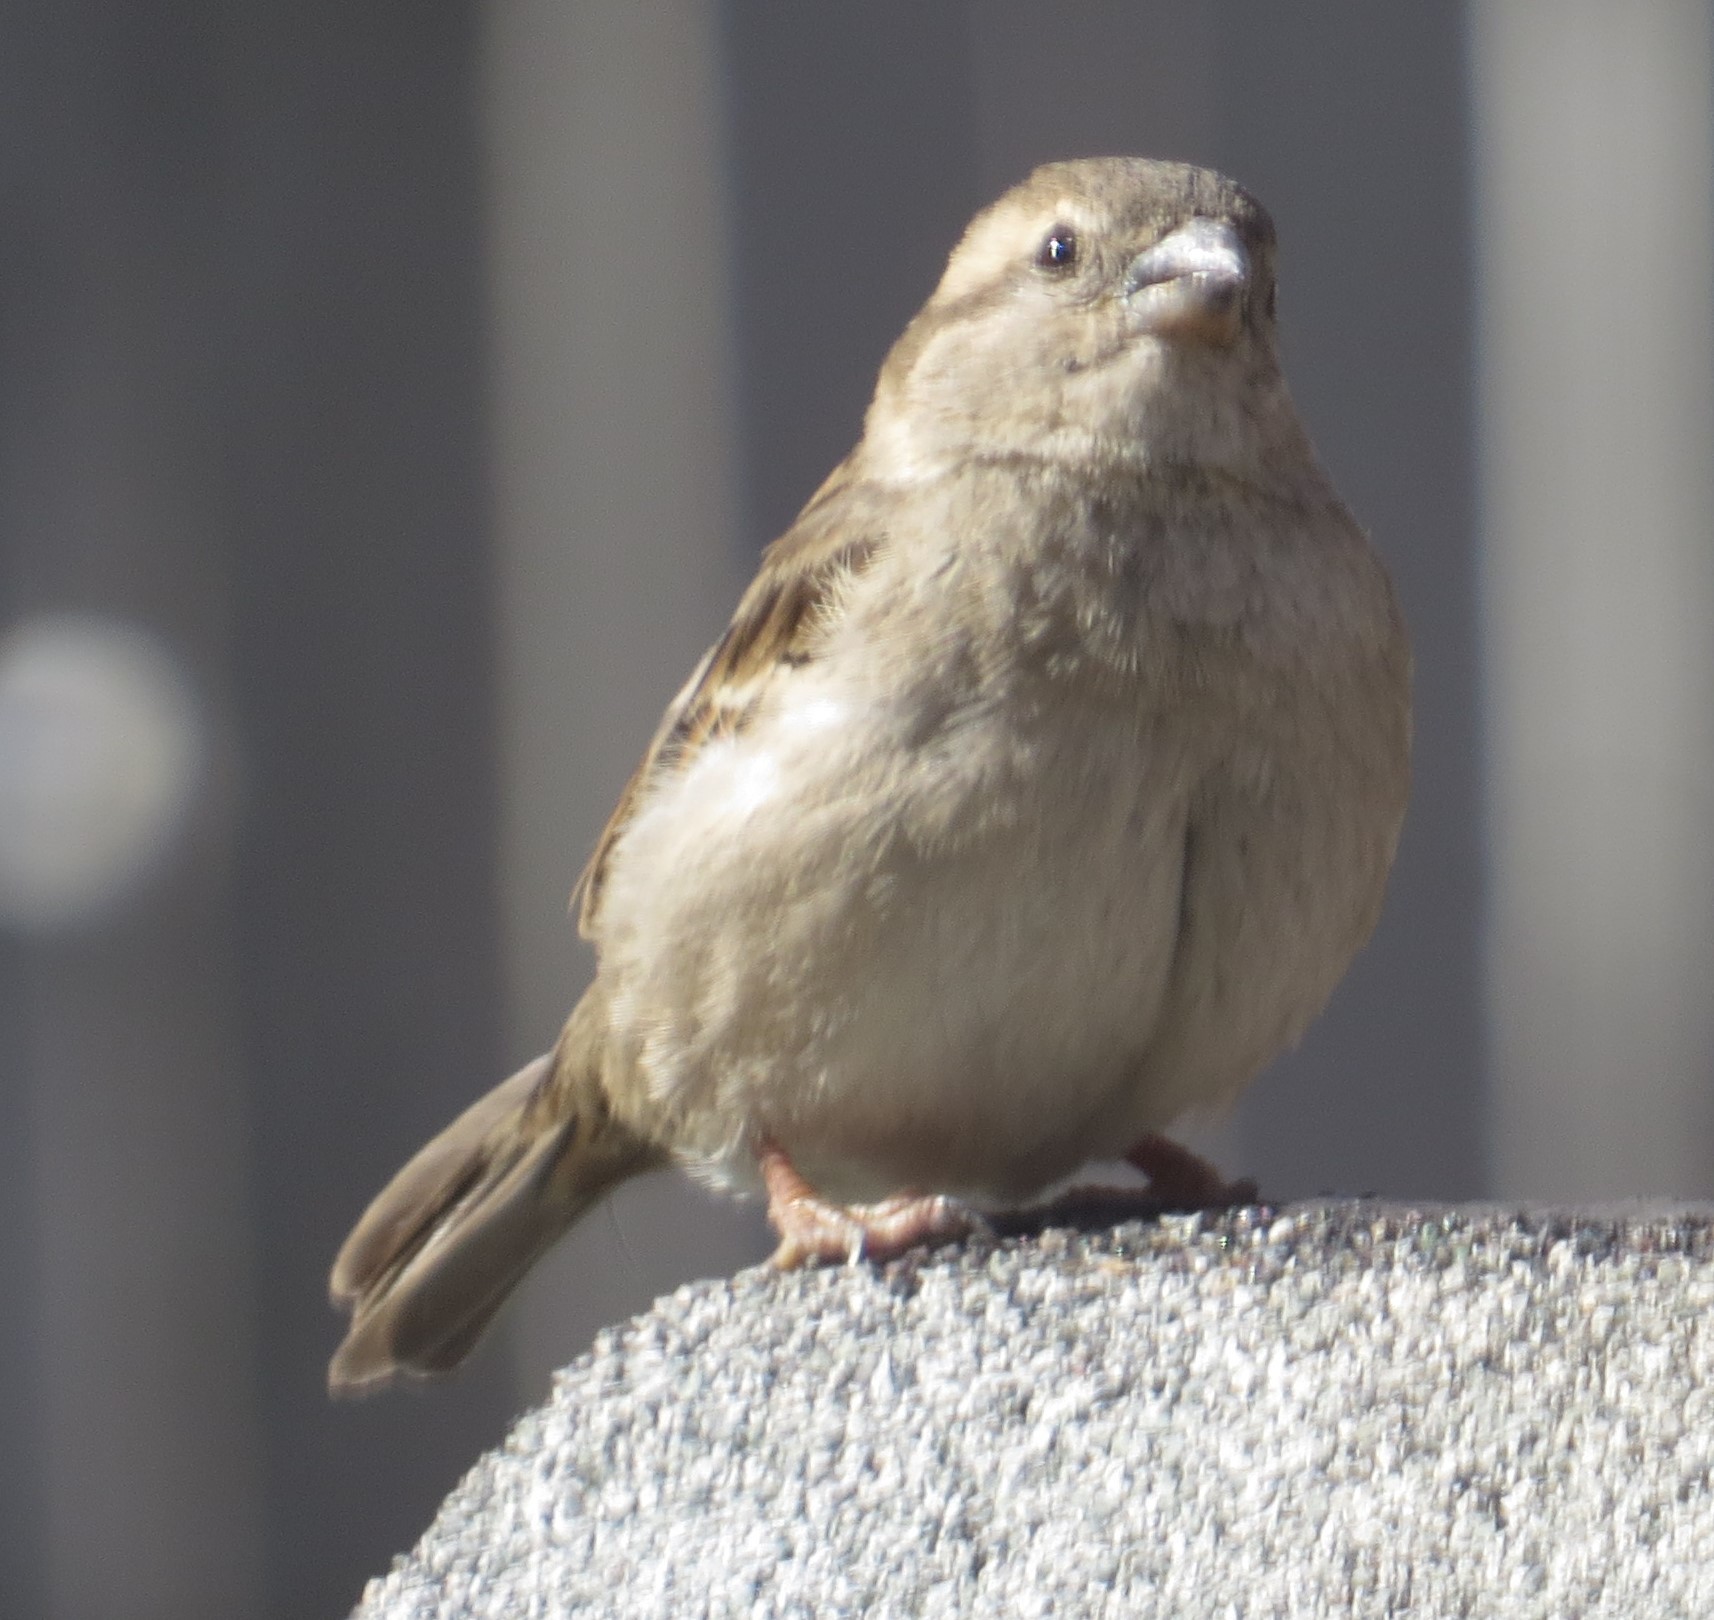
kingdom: Animalia
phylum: Chordata
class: Aves
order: Passeriformes
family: Passeridae
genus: Passer
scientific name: Passer domesticus
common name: House sparrow
